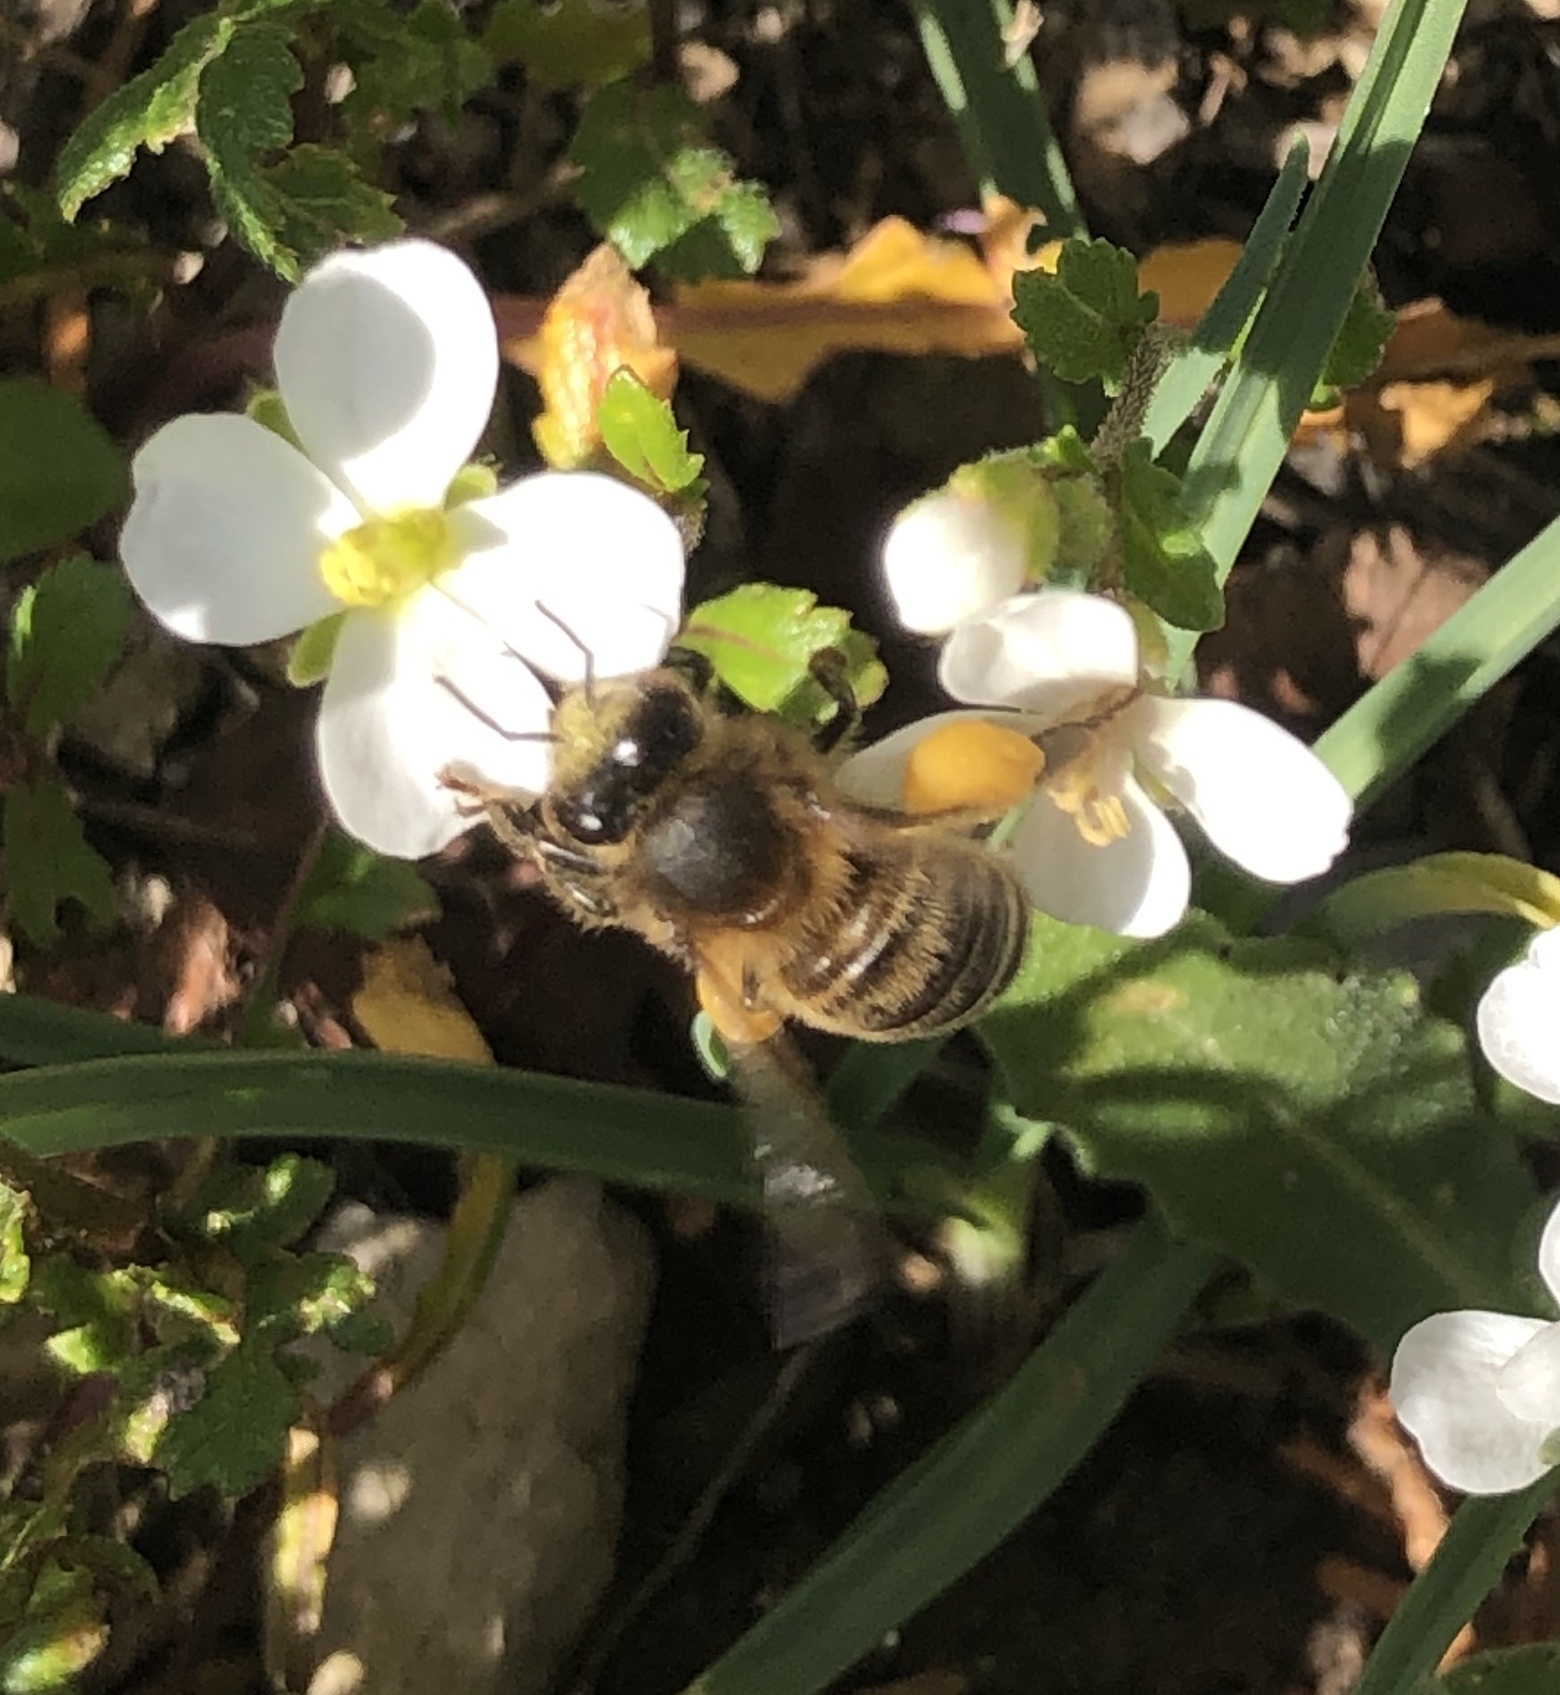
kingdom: Animalia
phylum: Arthropoda
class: Insecta
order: Hymenoptera
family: Apidae
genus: Apis
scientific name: Apis mellifera
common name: Honey bee
